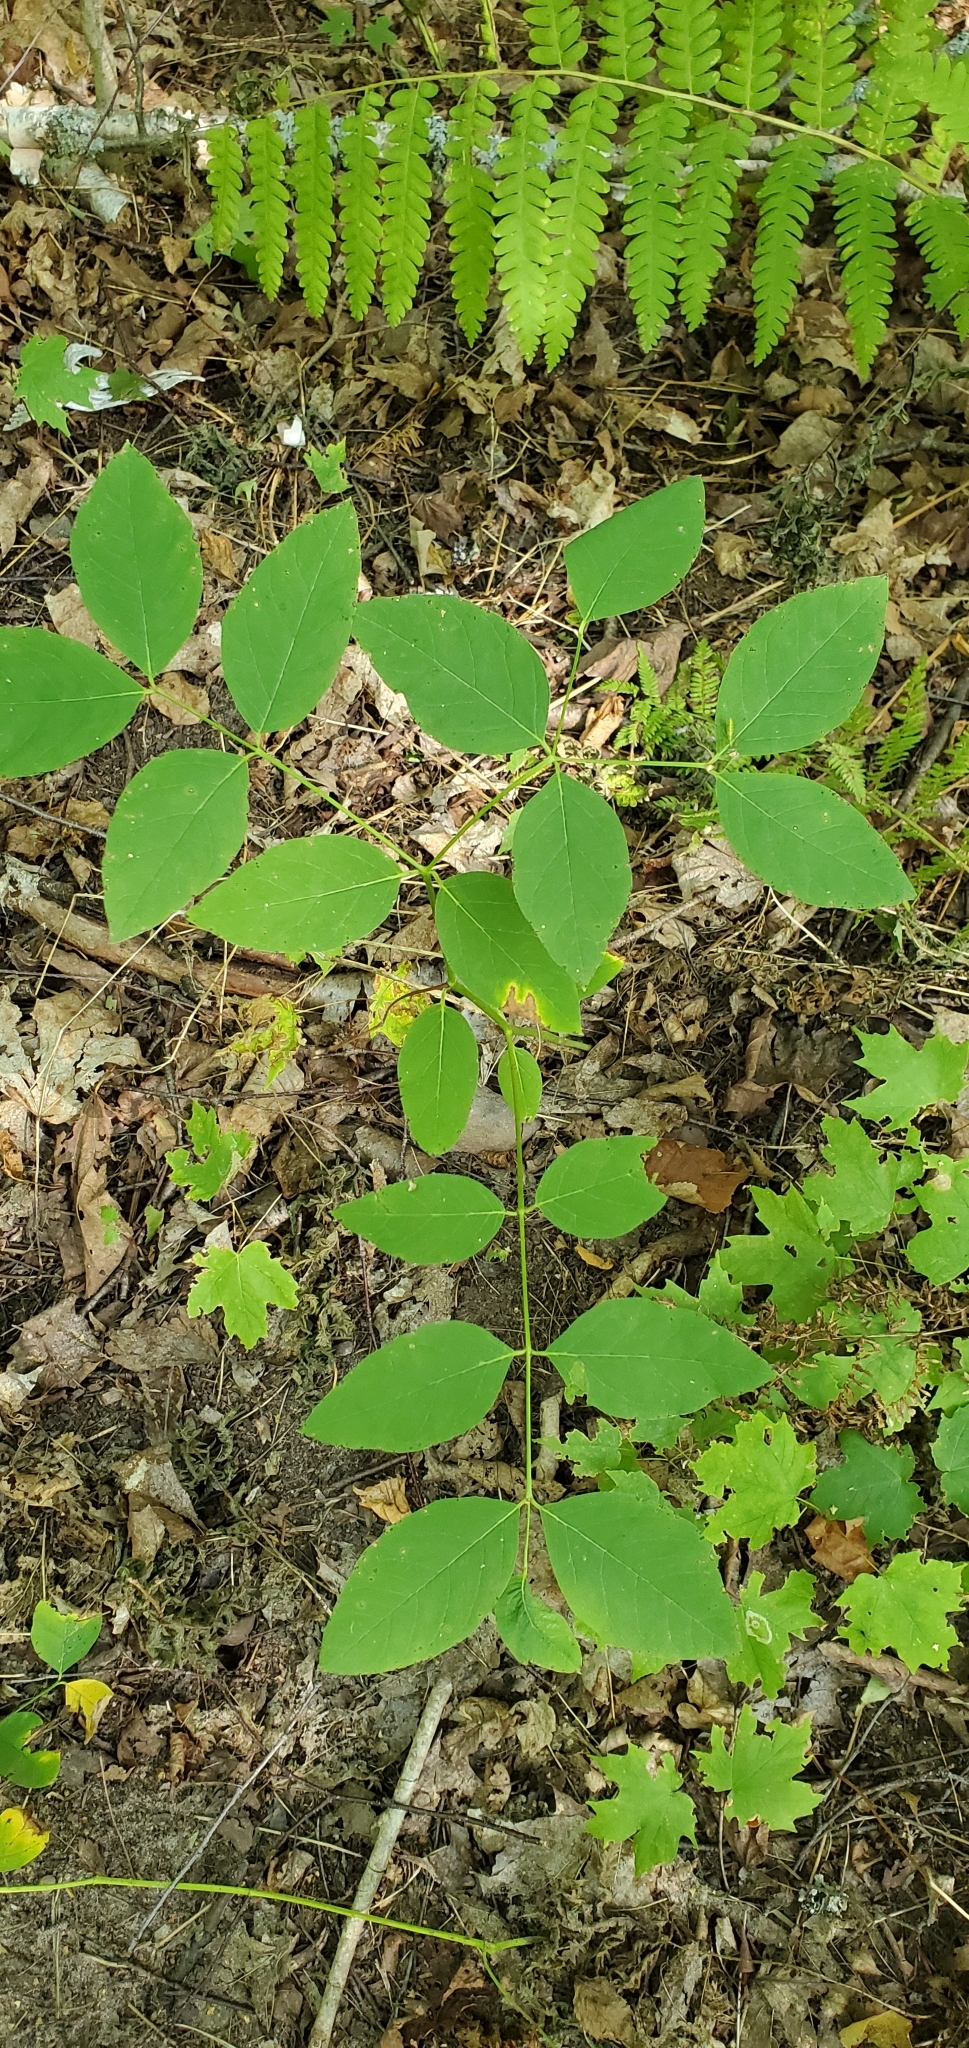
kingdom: Plantae
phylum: Tracheophyta
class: Magnoliopsida
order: Gentianales
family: Apocynaceae
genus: Apocynum
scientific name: Apocynum androsaemifolium
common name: Spreading dogbane
